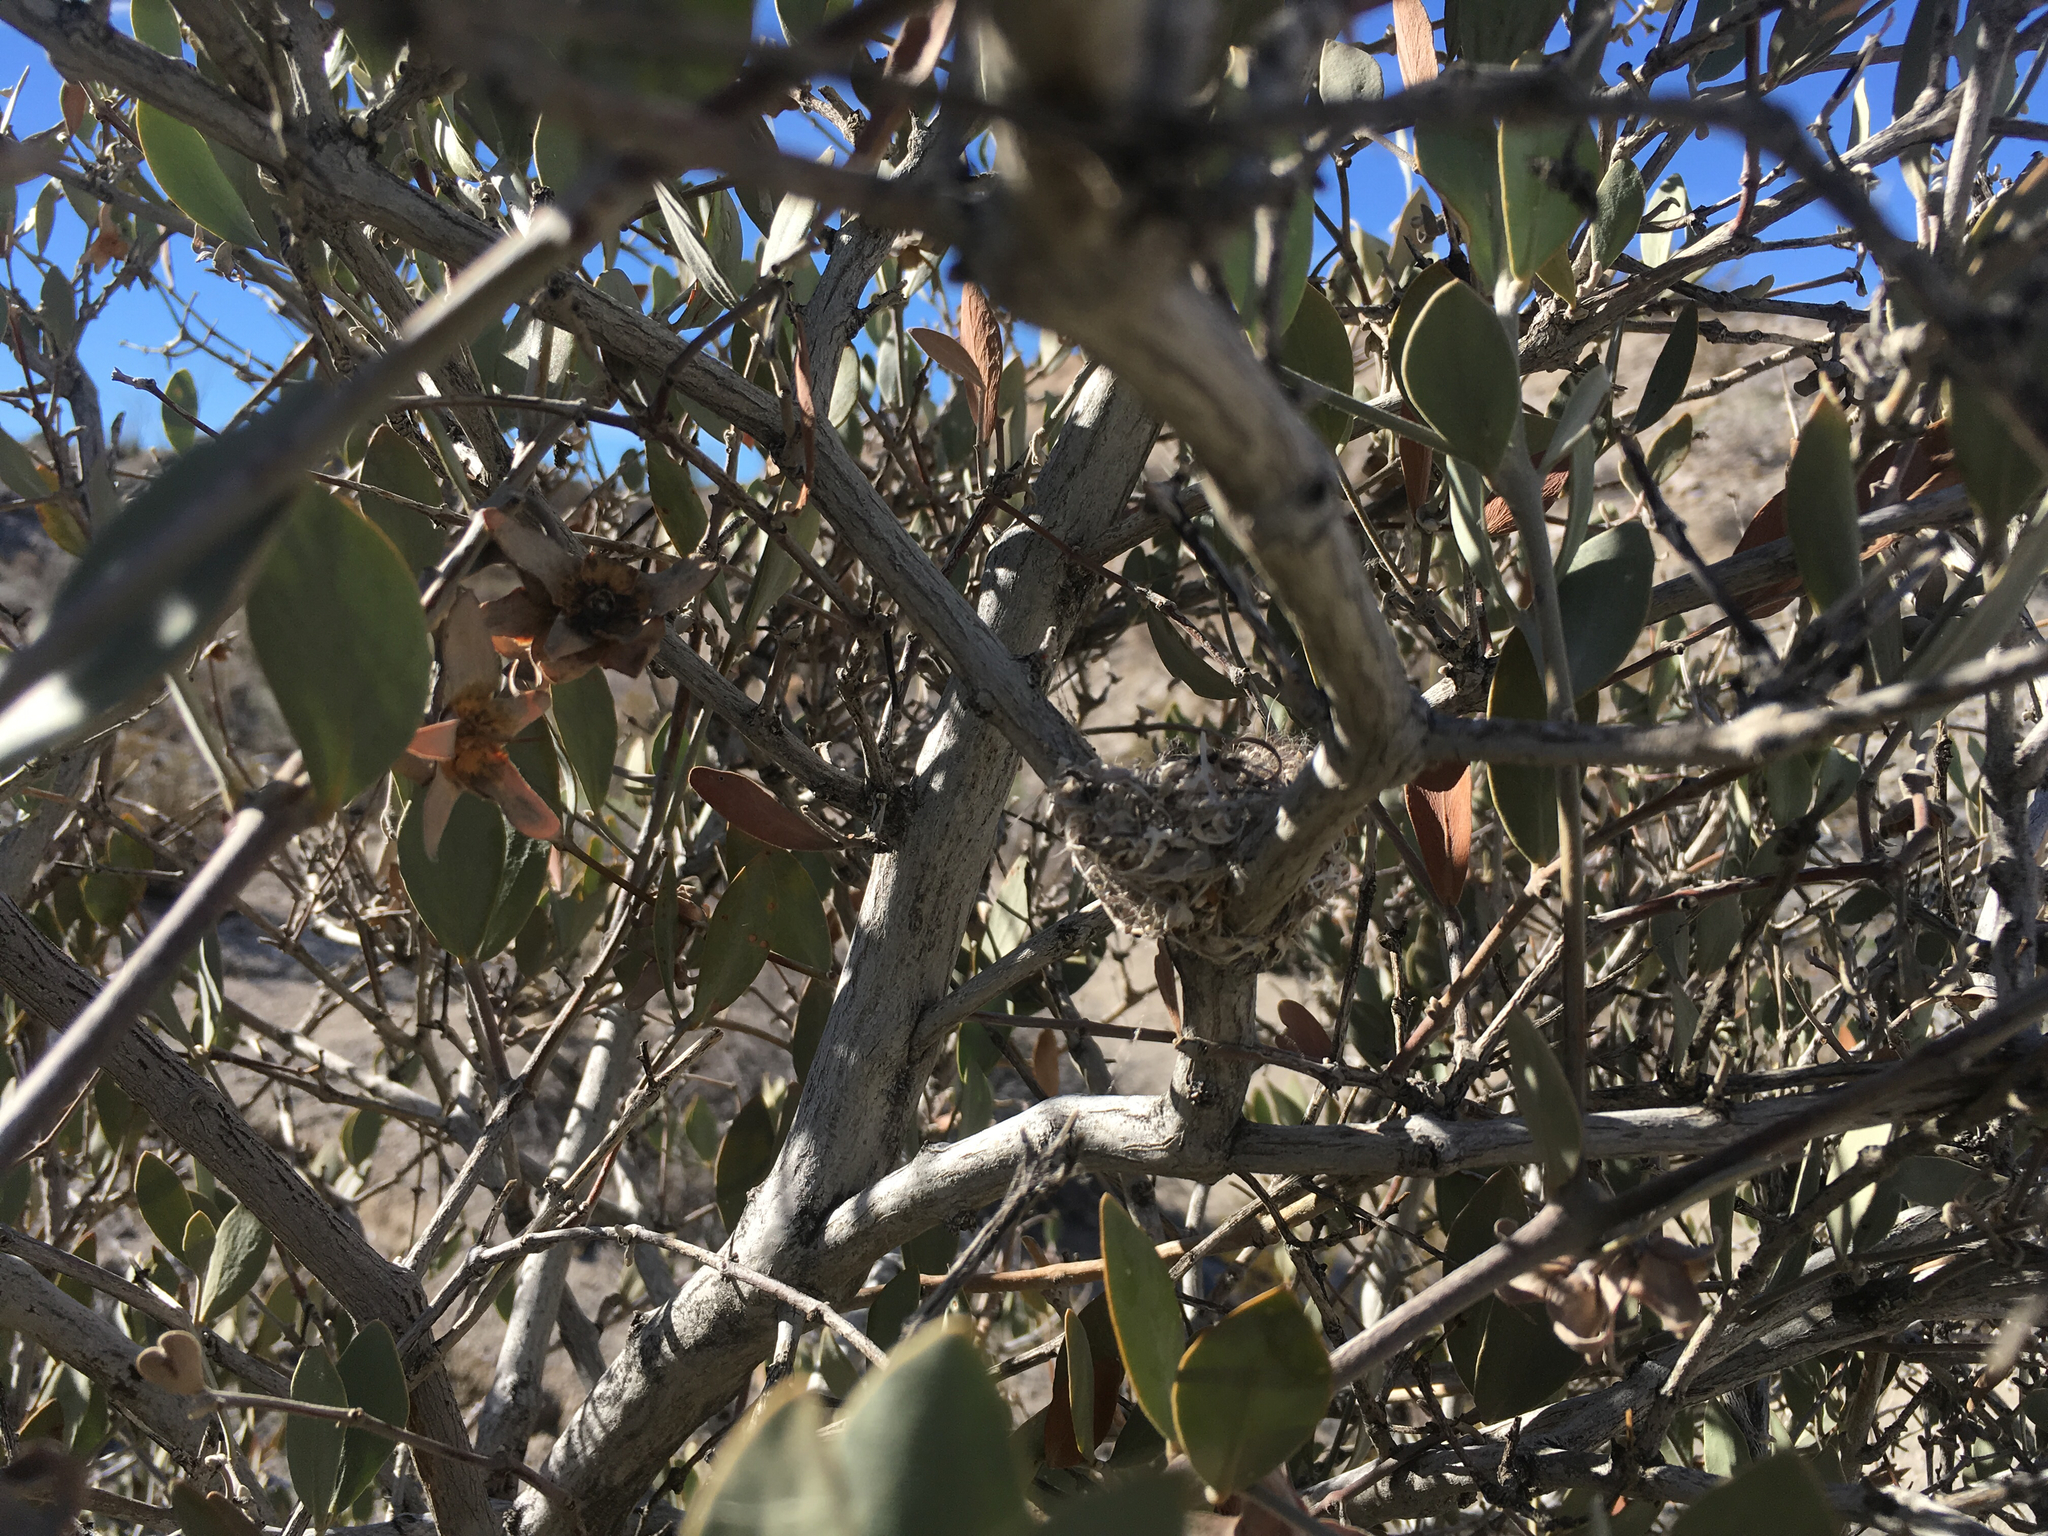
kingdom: Animalia
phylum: Chordata
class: Aves
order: Apodiformes
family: Trochilidae
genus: Calypte
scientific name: Calypte costae
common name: Costa's hummingbird
